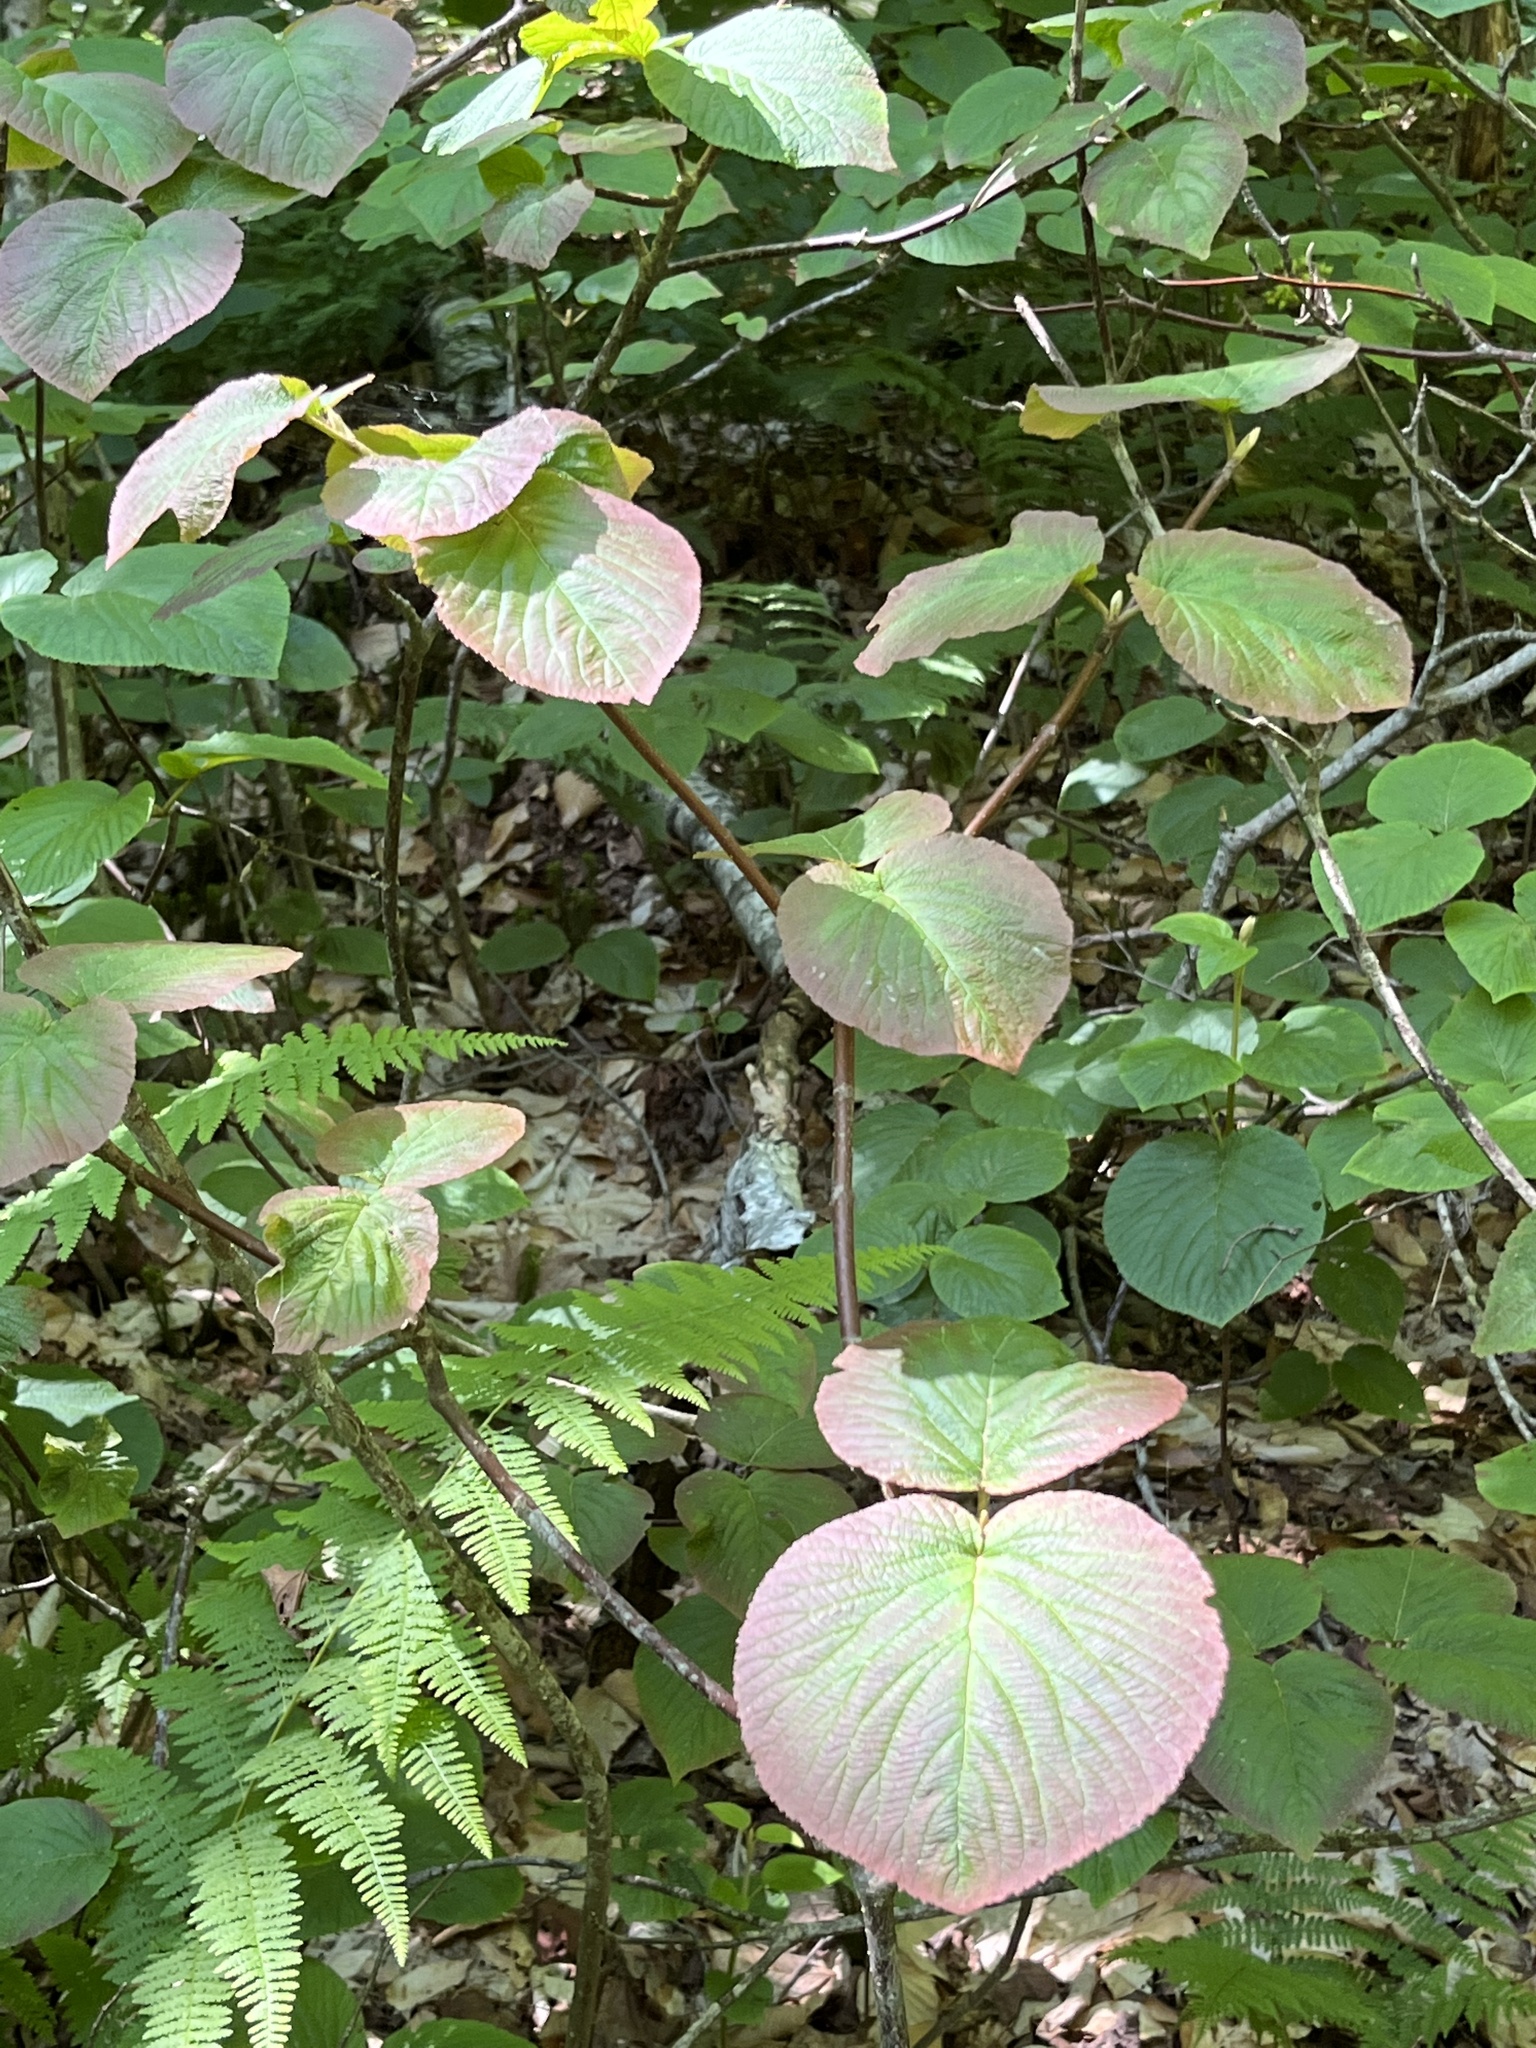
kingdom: Plantae
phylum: Tracheophyta
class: Magnoliopsida
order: Dipsacales
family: Viburnaceae
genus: Viburnum
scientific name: Viburnum lantanoides
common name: Hobblebush
